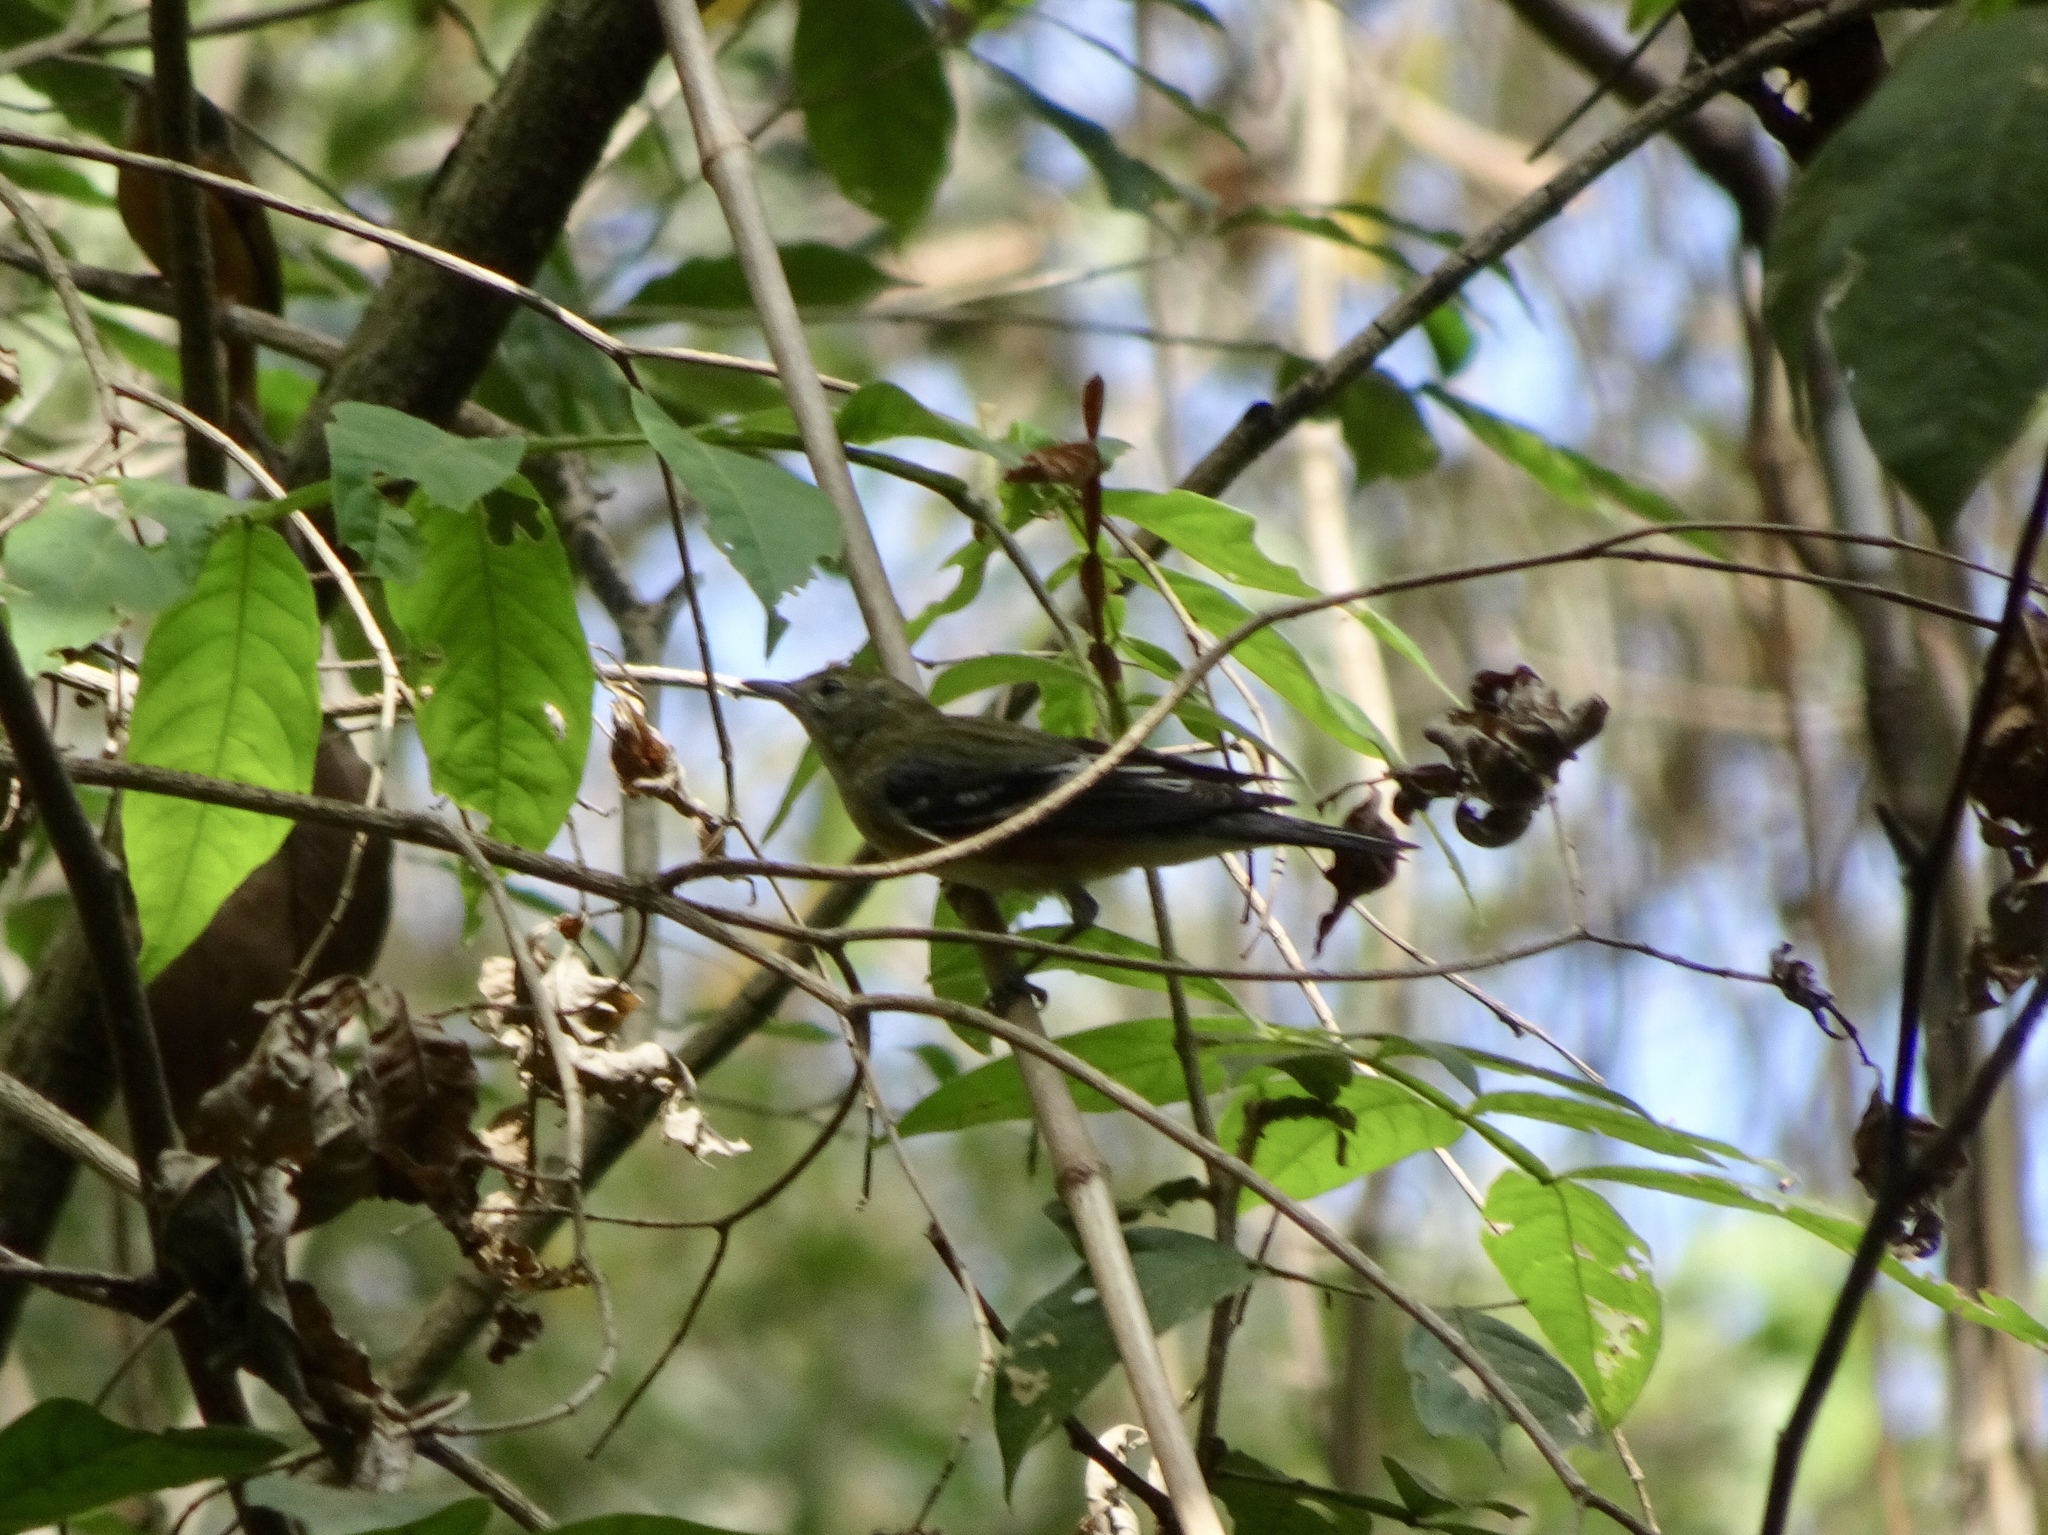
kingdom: Animalia
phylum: Chordata
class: Aves
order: Passeriformes
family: Parulidae
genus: Setophaga
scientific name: Setophaga castanea
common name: Bay-breasted warbler
